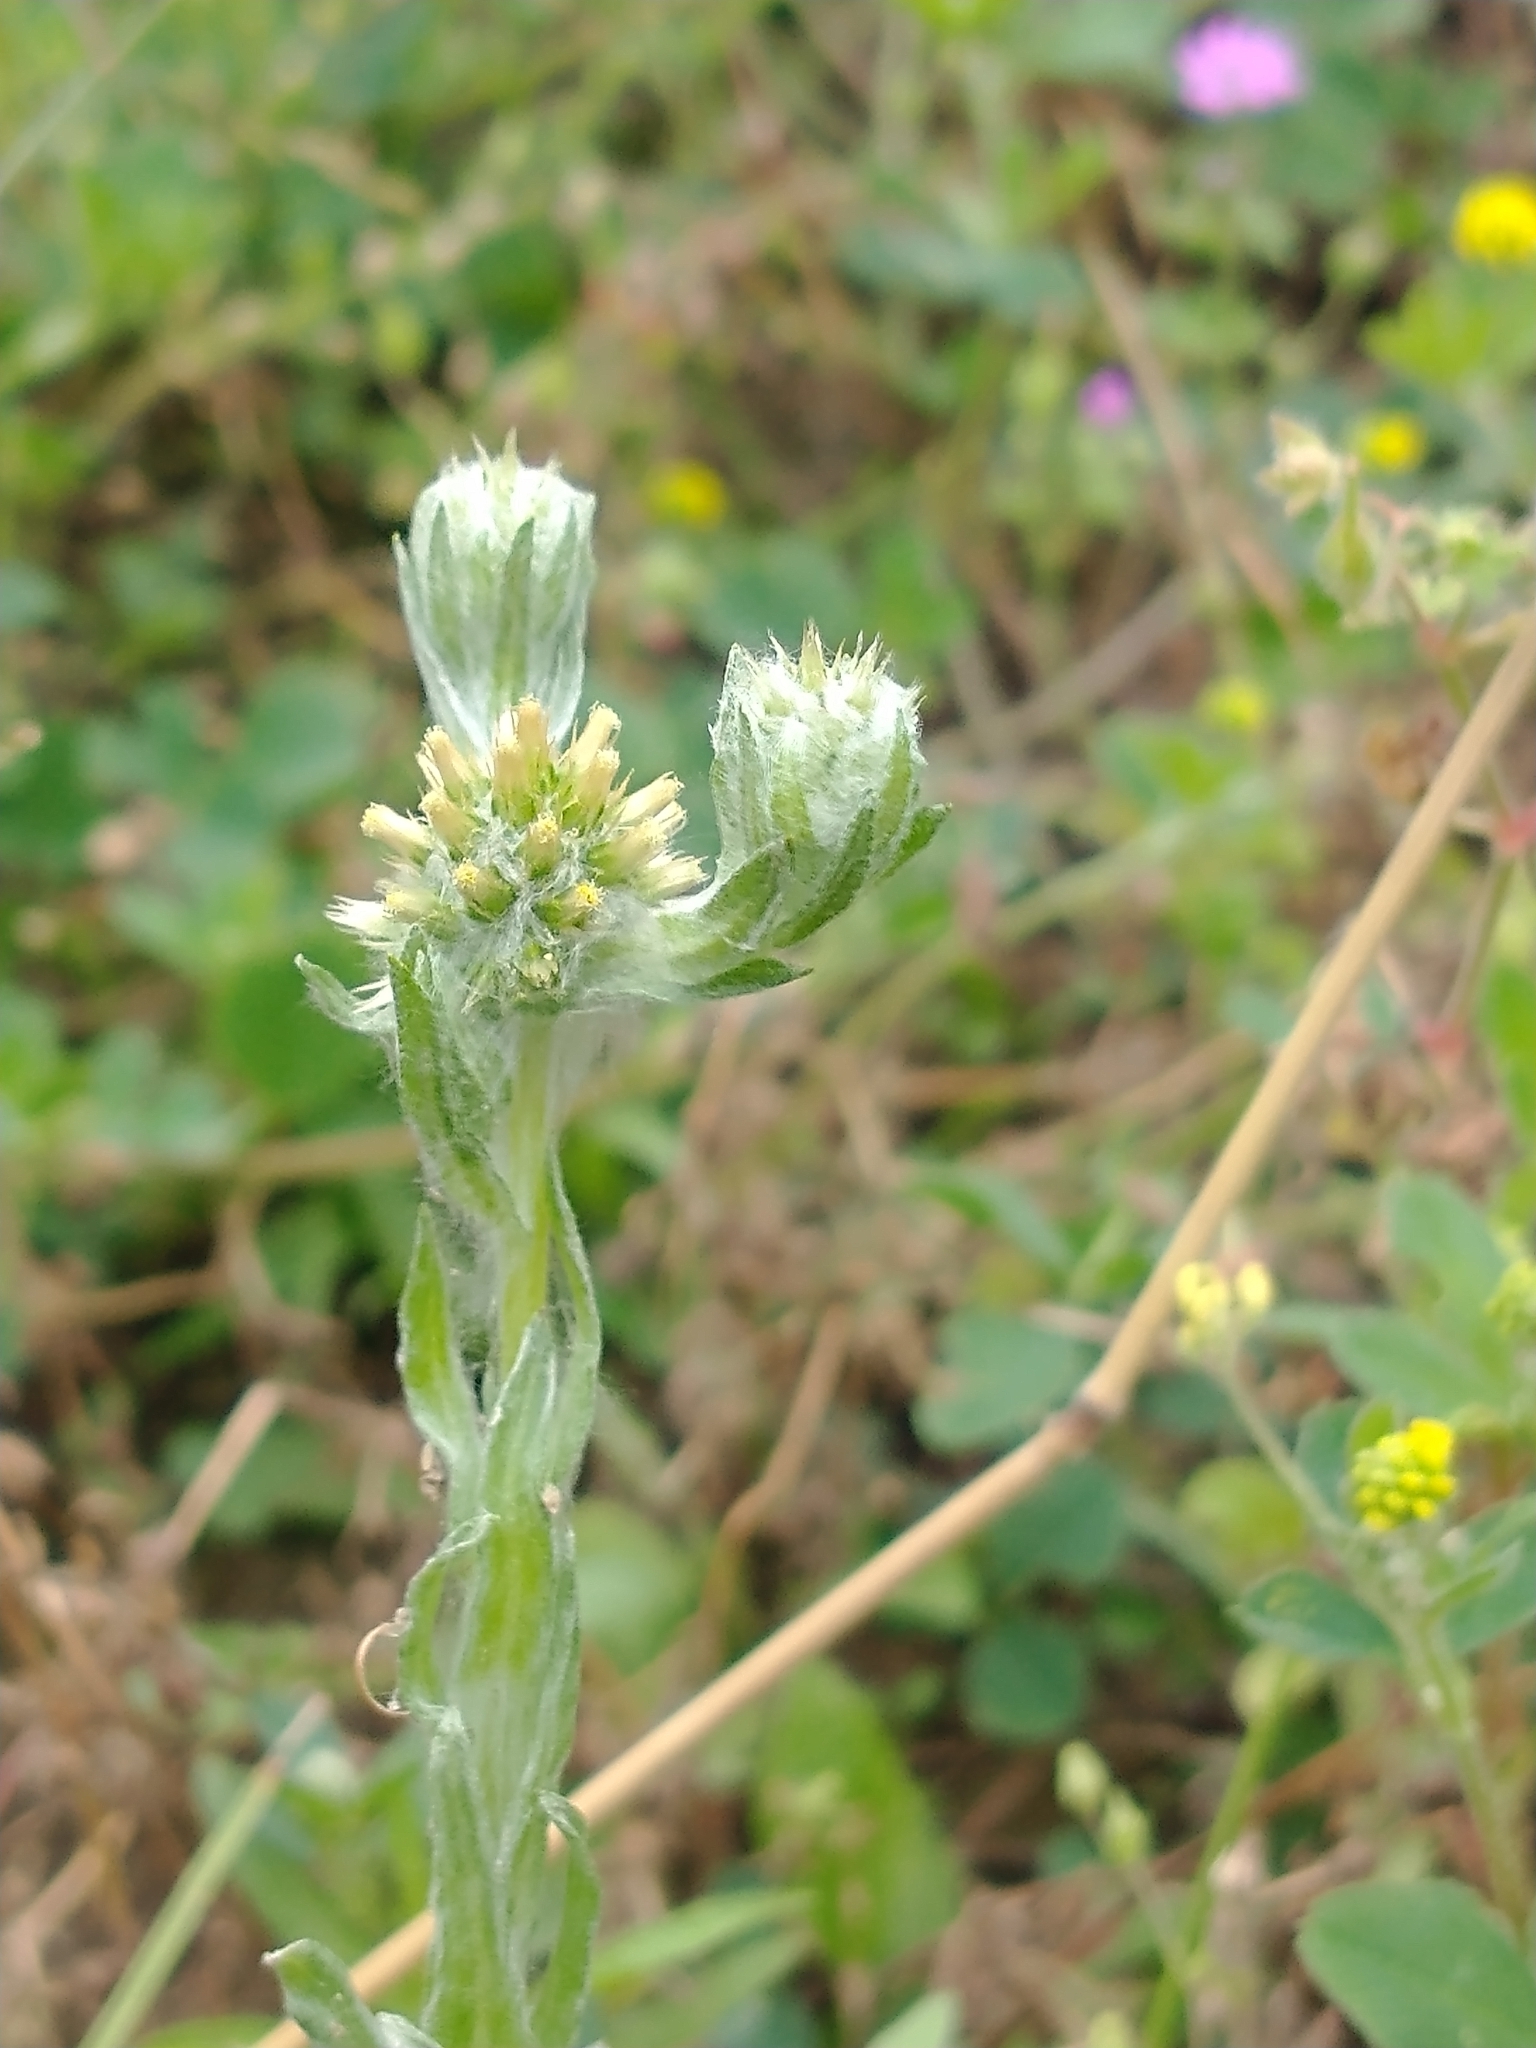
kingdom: Plantae
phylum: Tracheophyta
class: Magnoliopsida
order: Asterales
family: Asteraceae
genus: Filago
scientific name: Filago germanica
